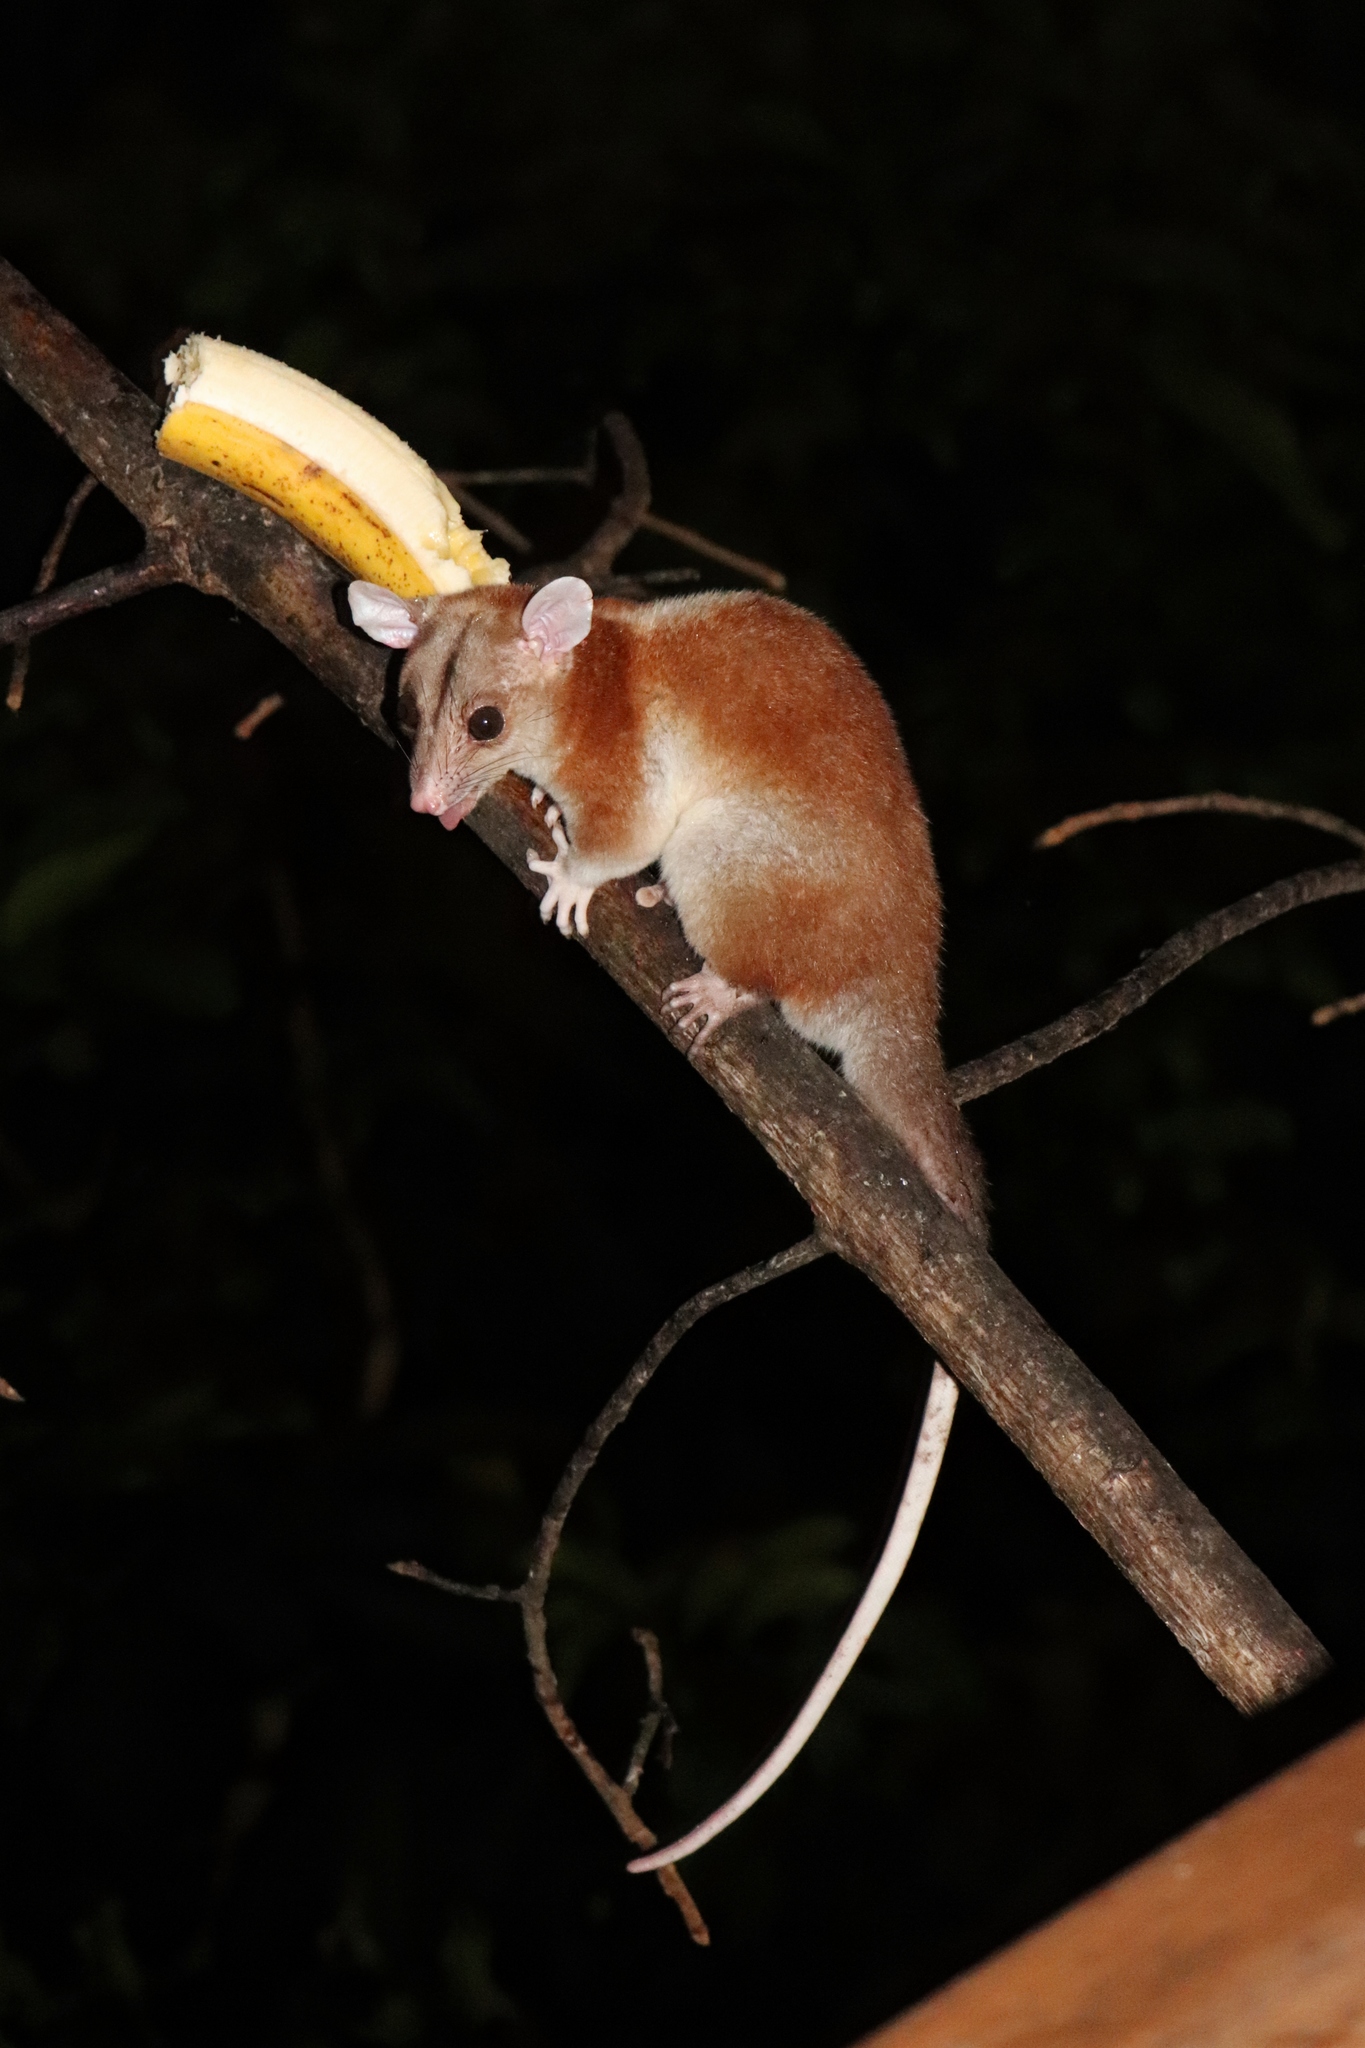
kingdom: Animalia
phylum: Chordata
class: Mammalia
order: Didelphimorphia
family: Didelphidae
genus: Caluromys
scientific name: Caluromys derbianus
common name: Derby's woolly opossum
